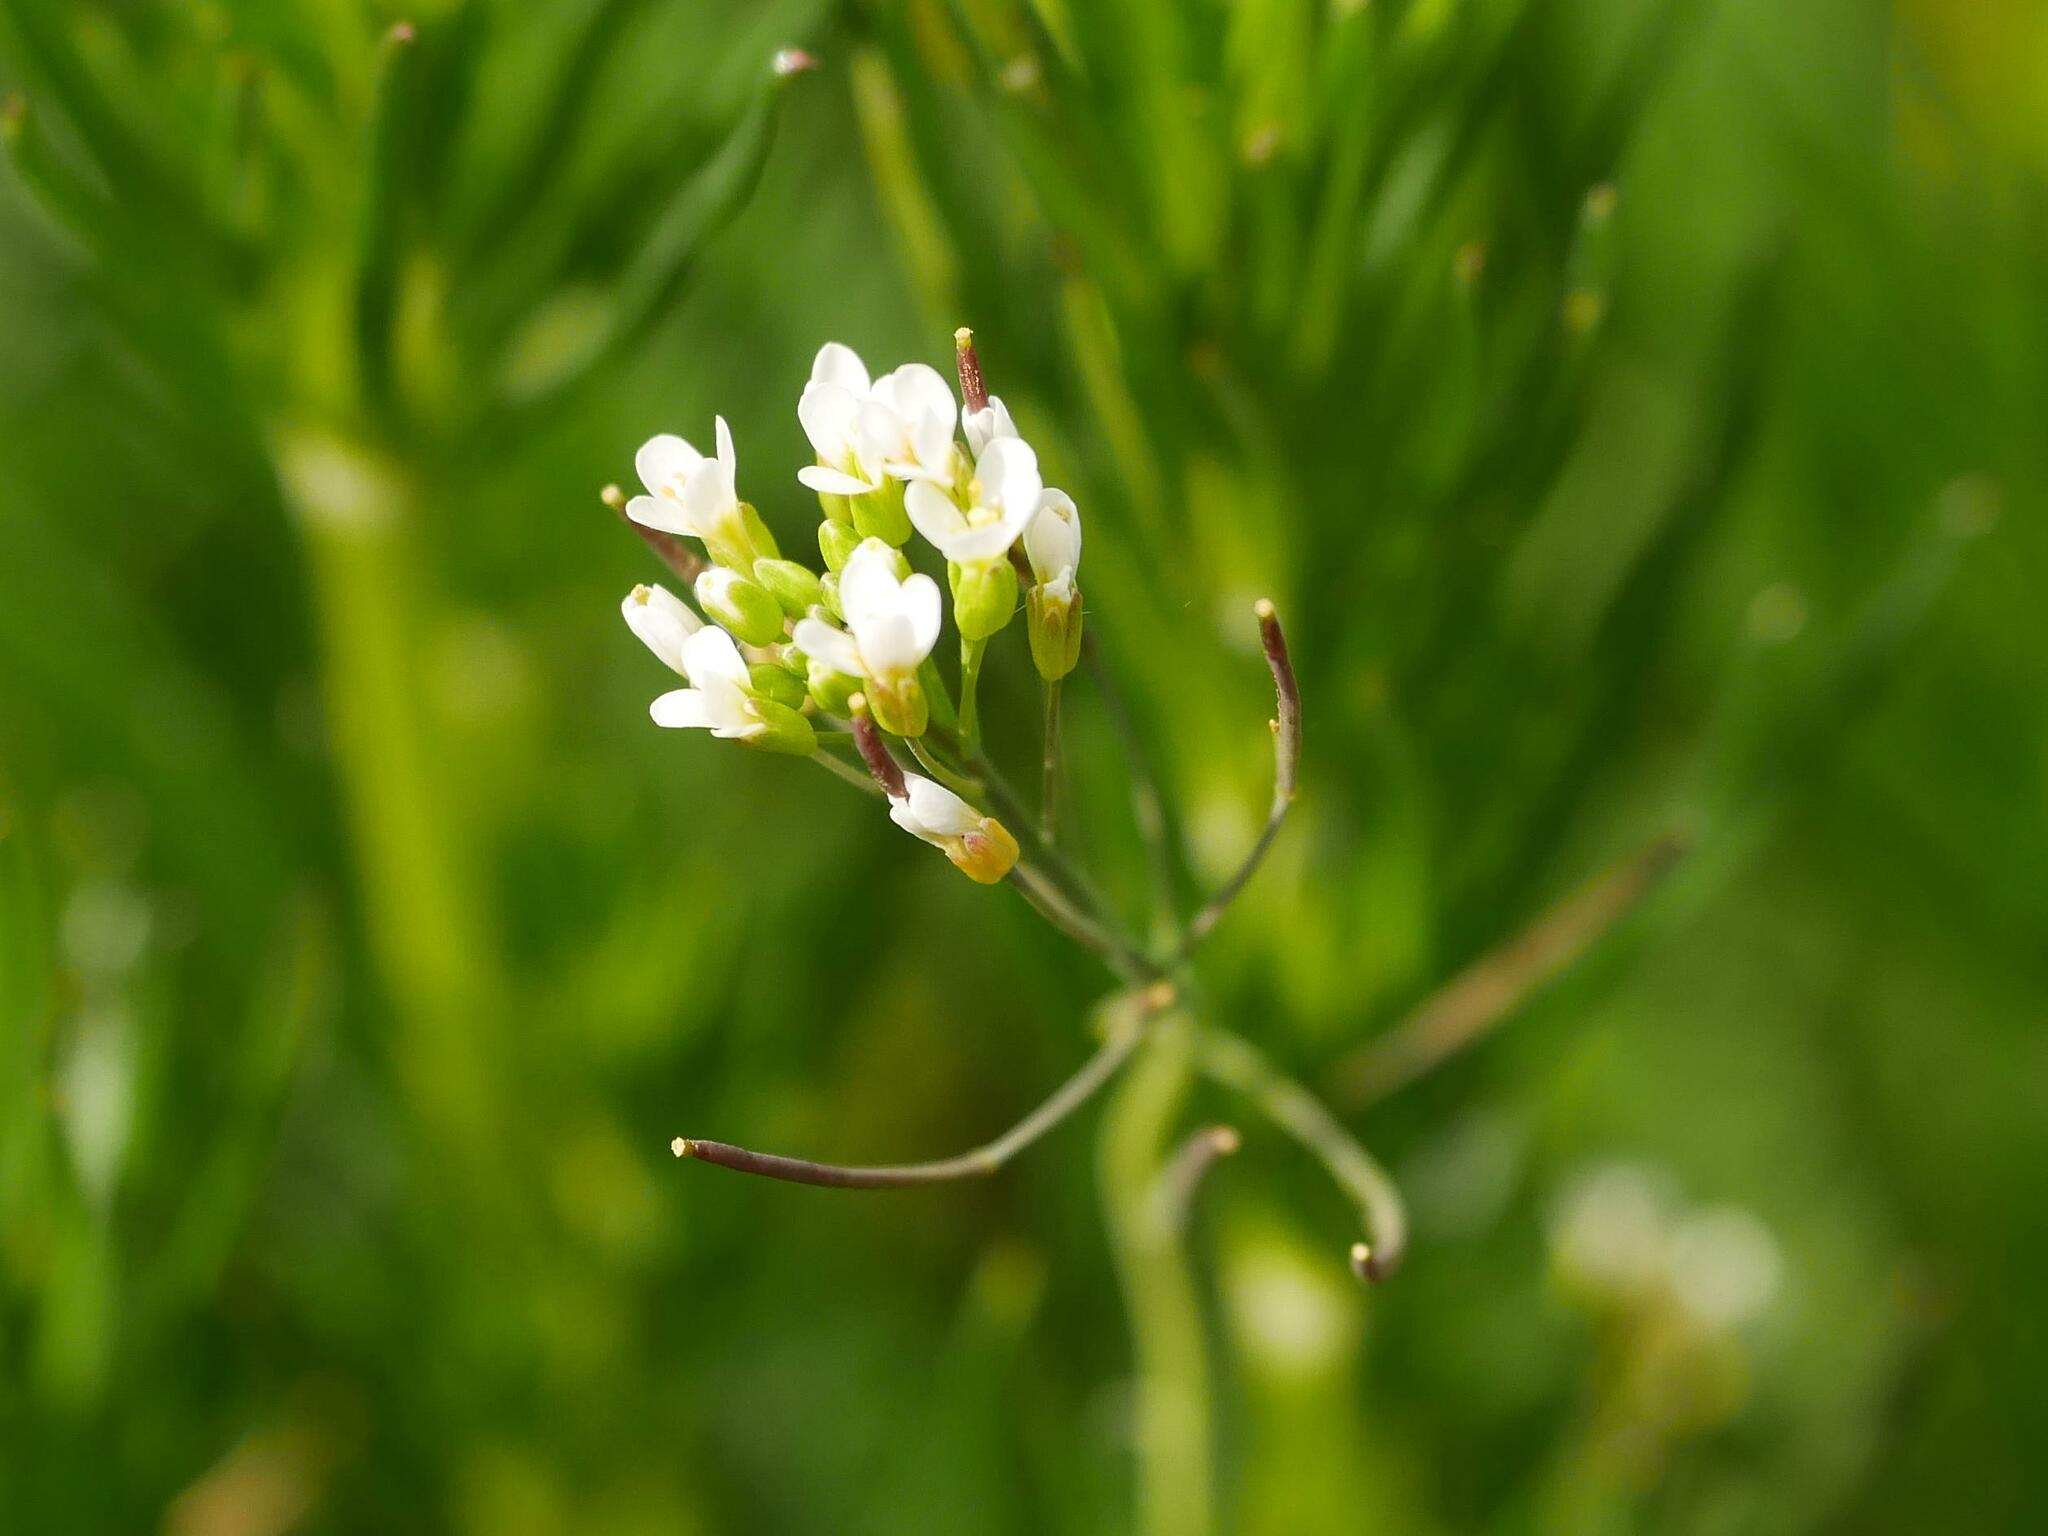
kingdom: Plantae
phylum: Tracheophyta
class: Magnoliopsida
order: Brassicales
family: Brassicaceae
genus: Arabidopsis
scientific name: Arabidopsis thaliana
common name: Thale cress
